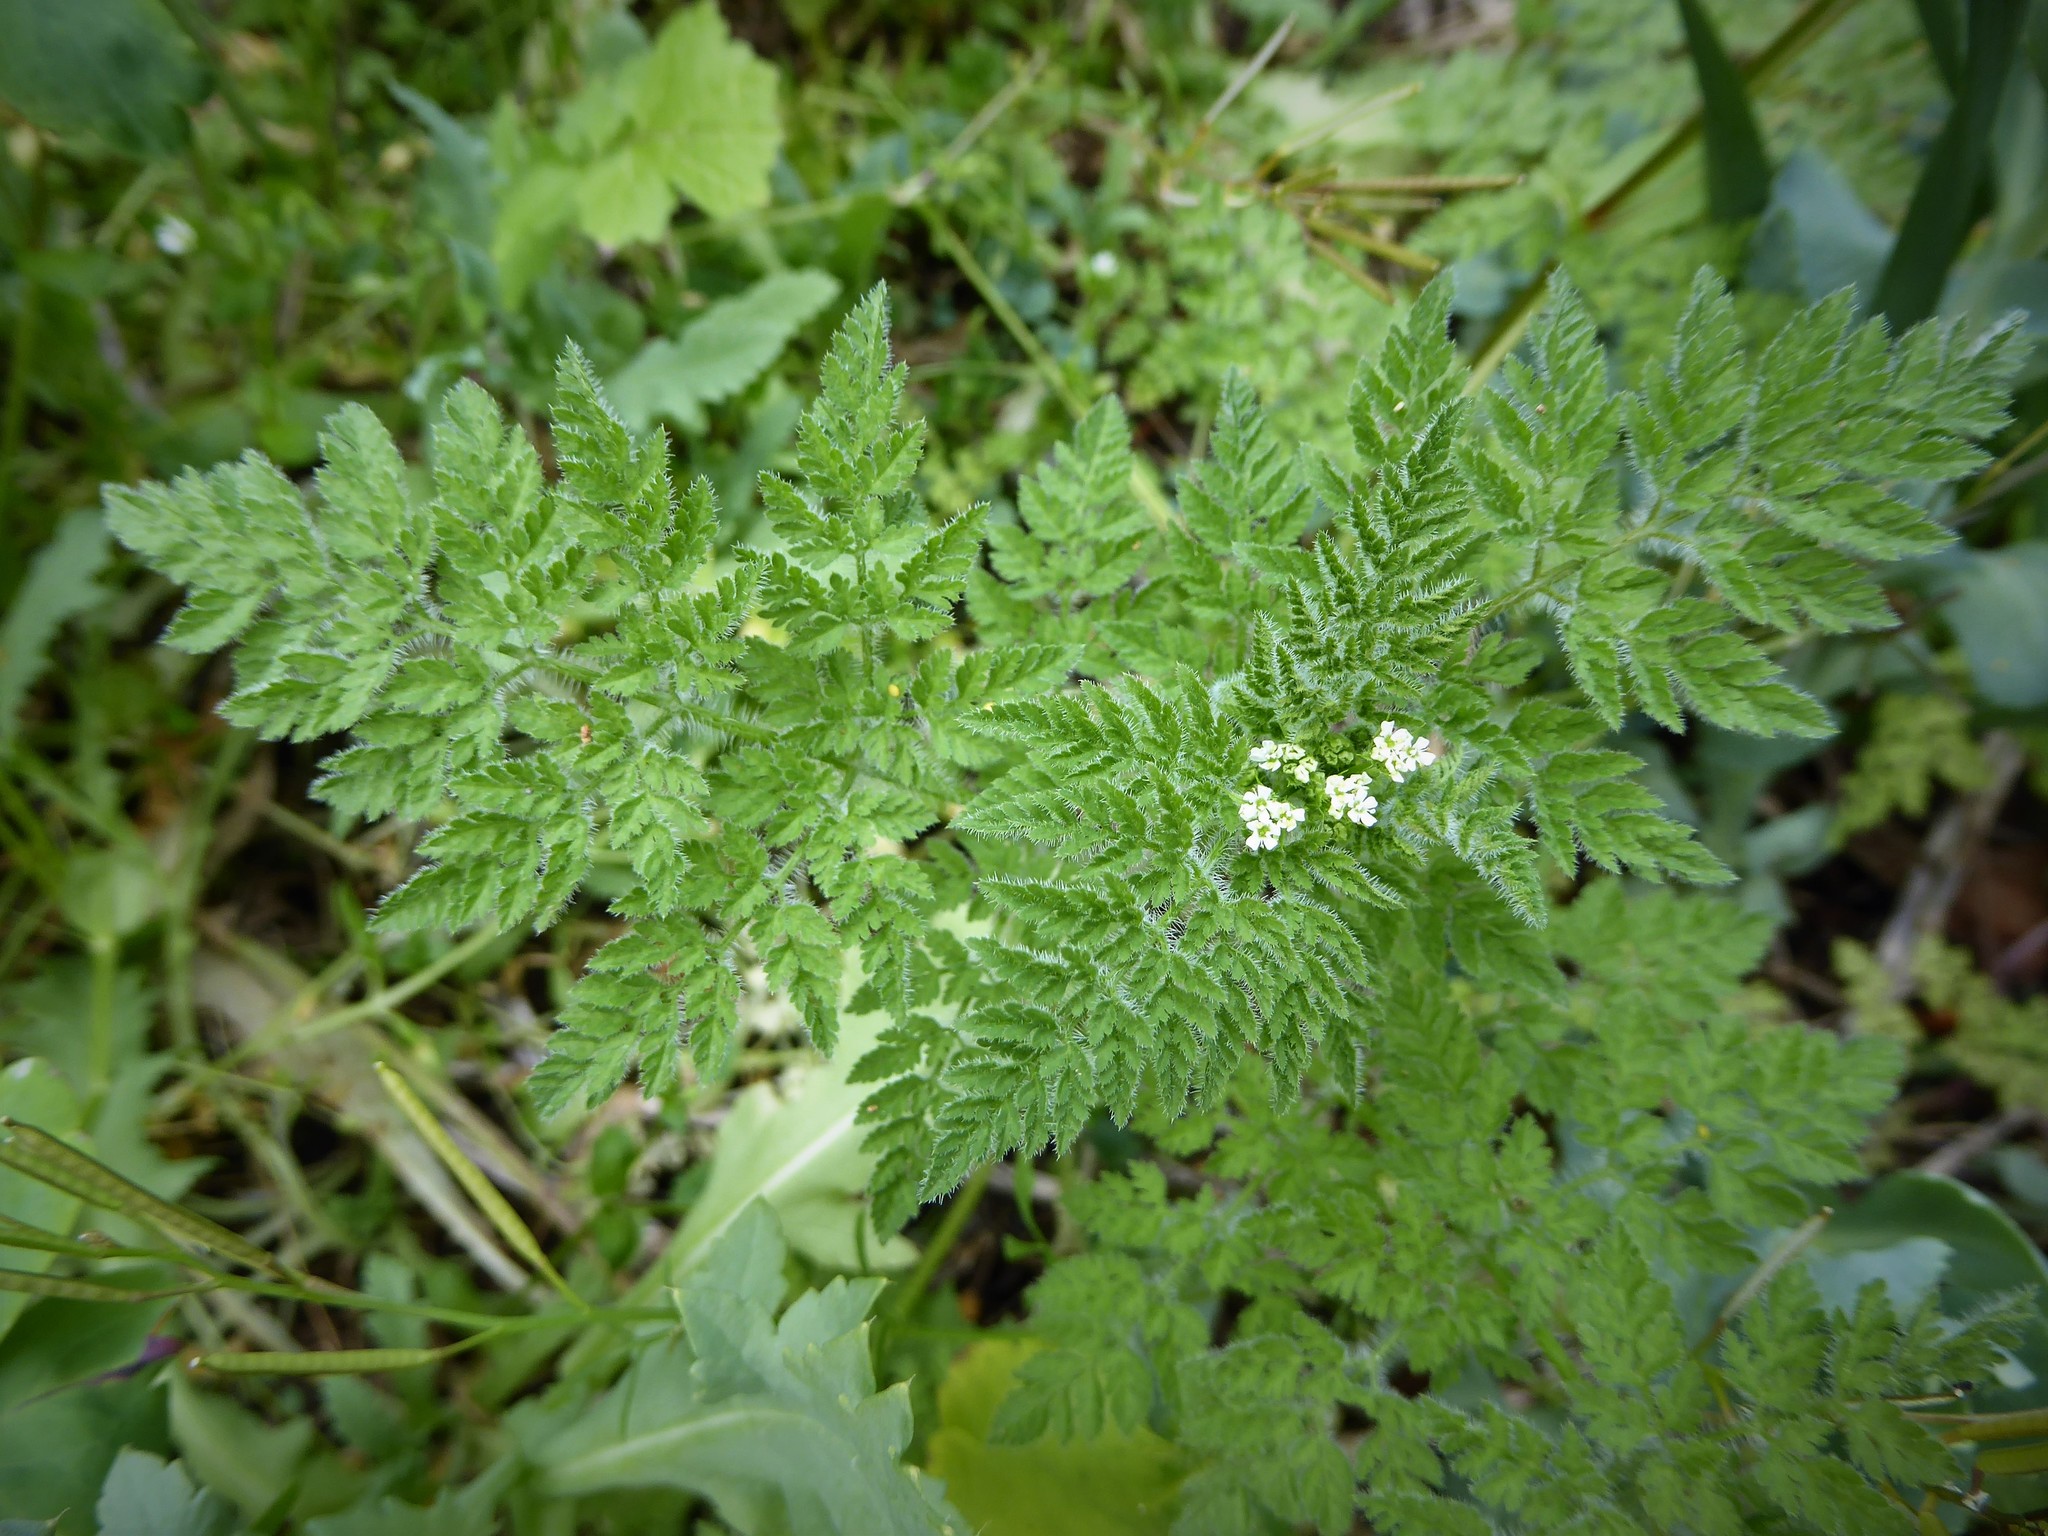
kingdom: Plantae
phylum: Tracheophyta
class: Magnoliopsida
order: Apiales
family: Apiaceae
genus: Anthriscus
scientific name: Anthriscus caucalis
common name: Bur chervil
